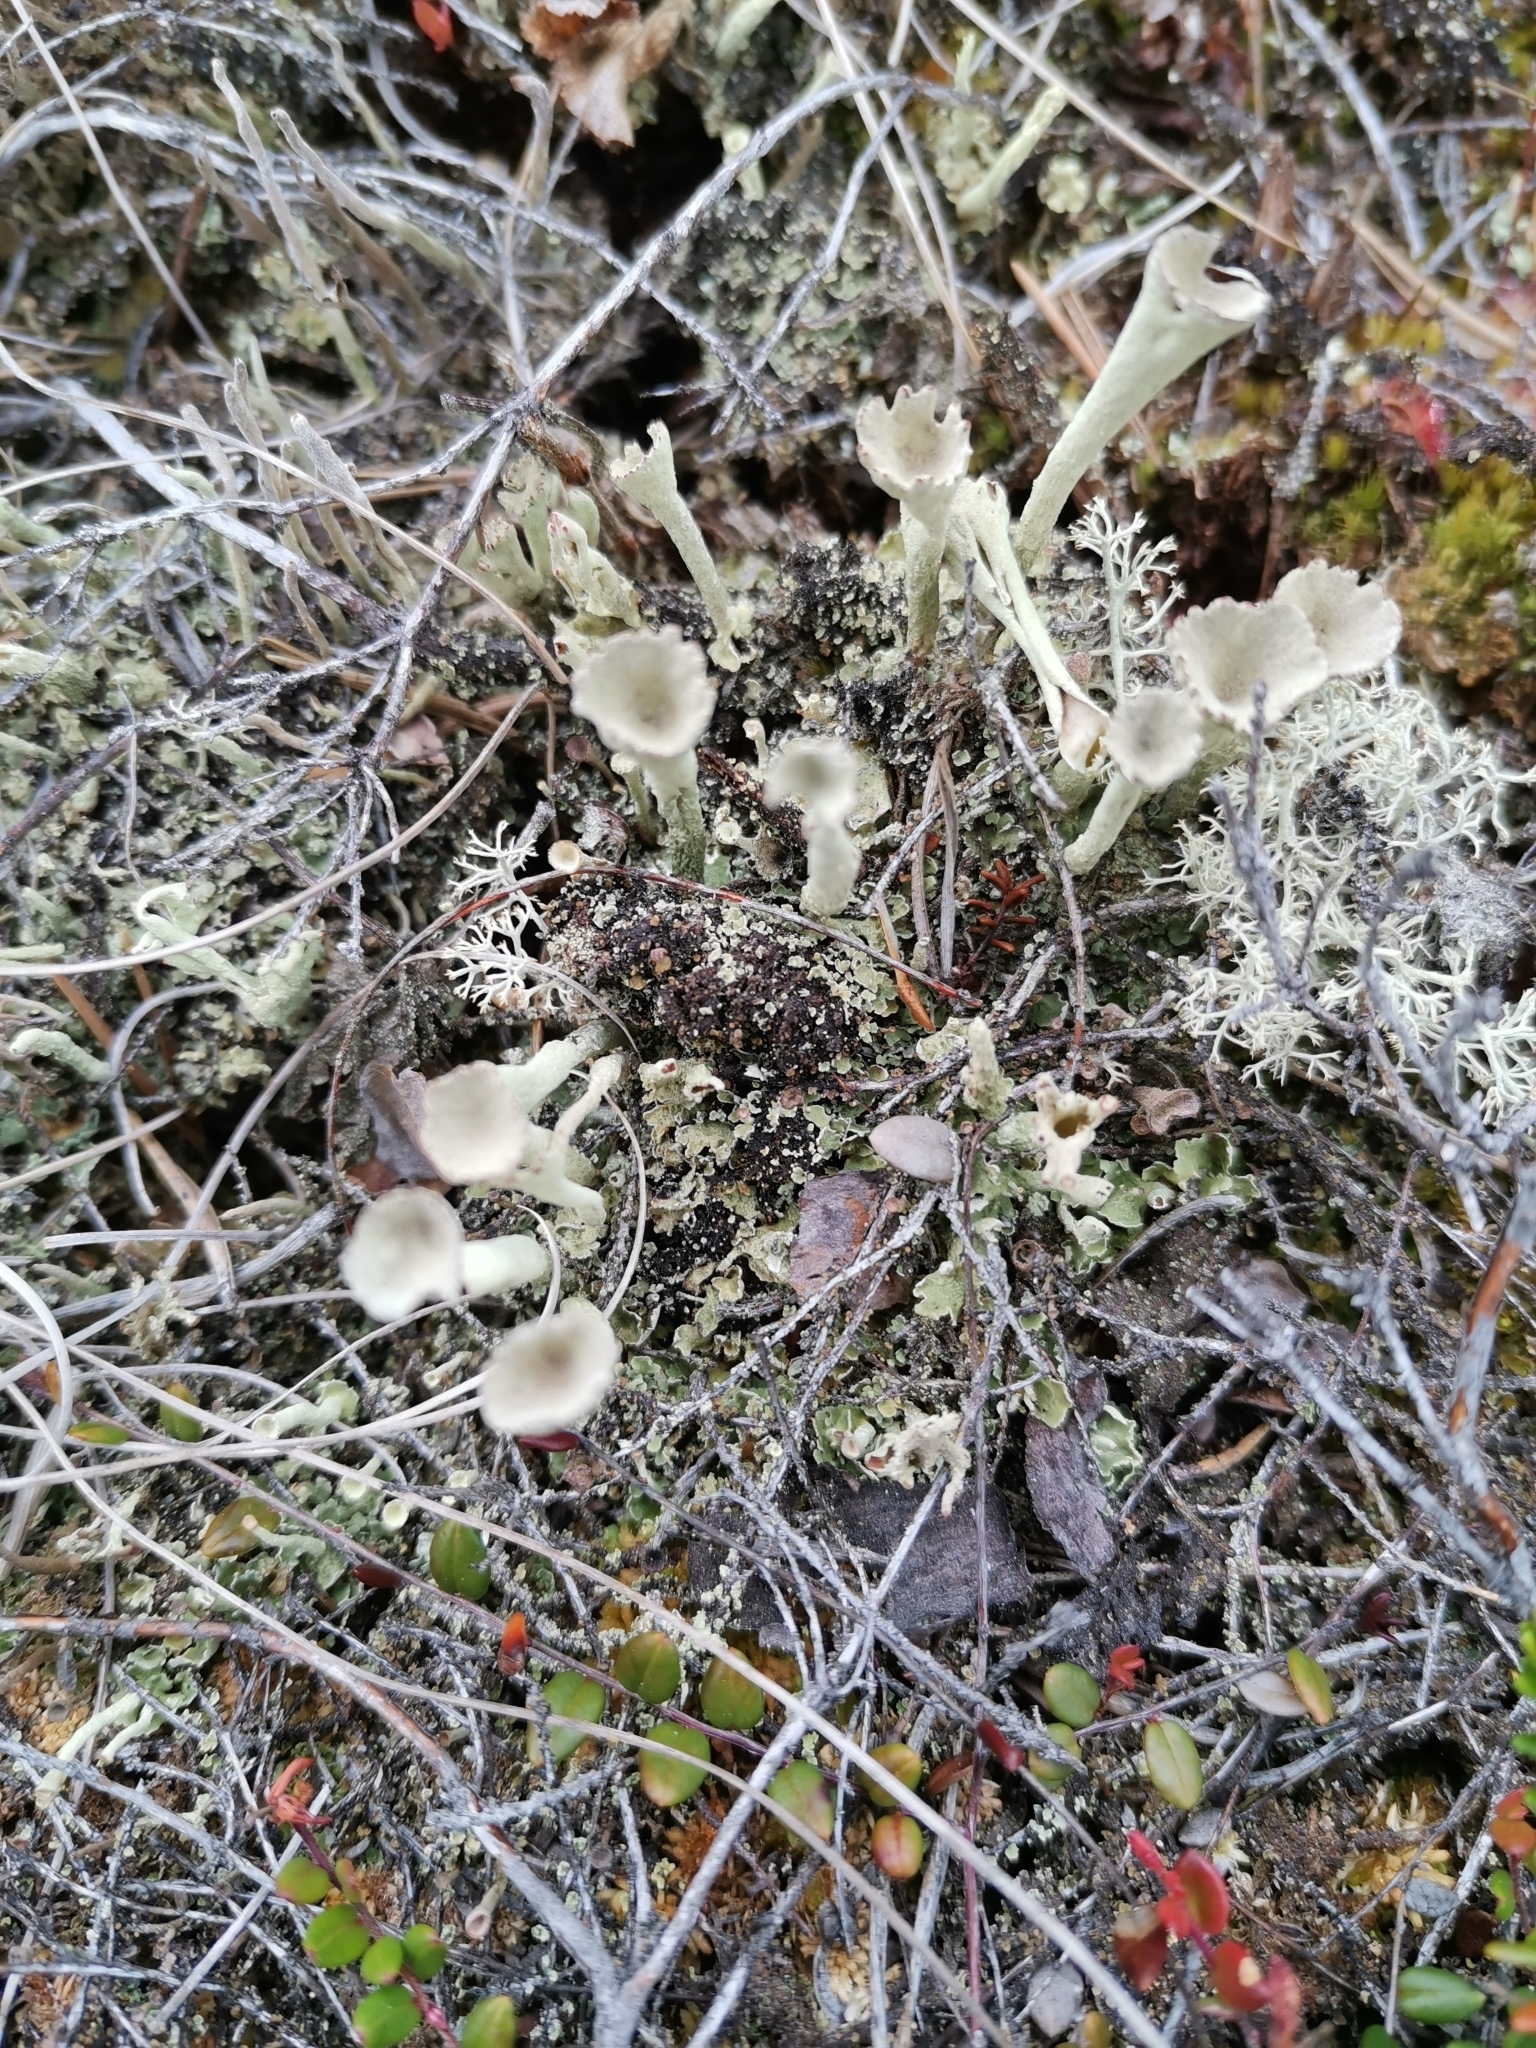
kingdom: Fungi
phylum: Ascomycota
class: Lecanoromycetes
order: Lecanorales
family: Cladoniaceae
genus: Cladonia
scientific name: Cladonia deformis
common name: Lesser sulphur-cup lichen
